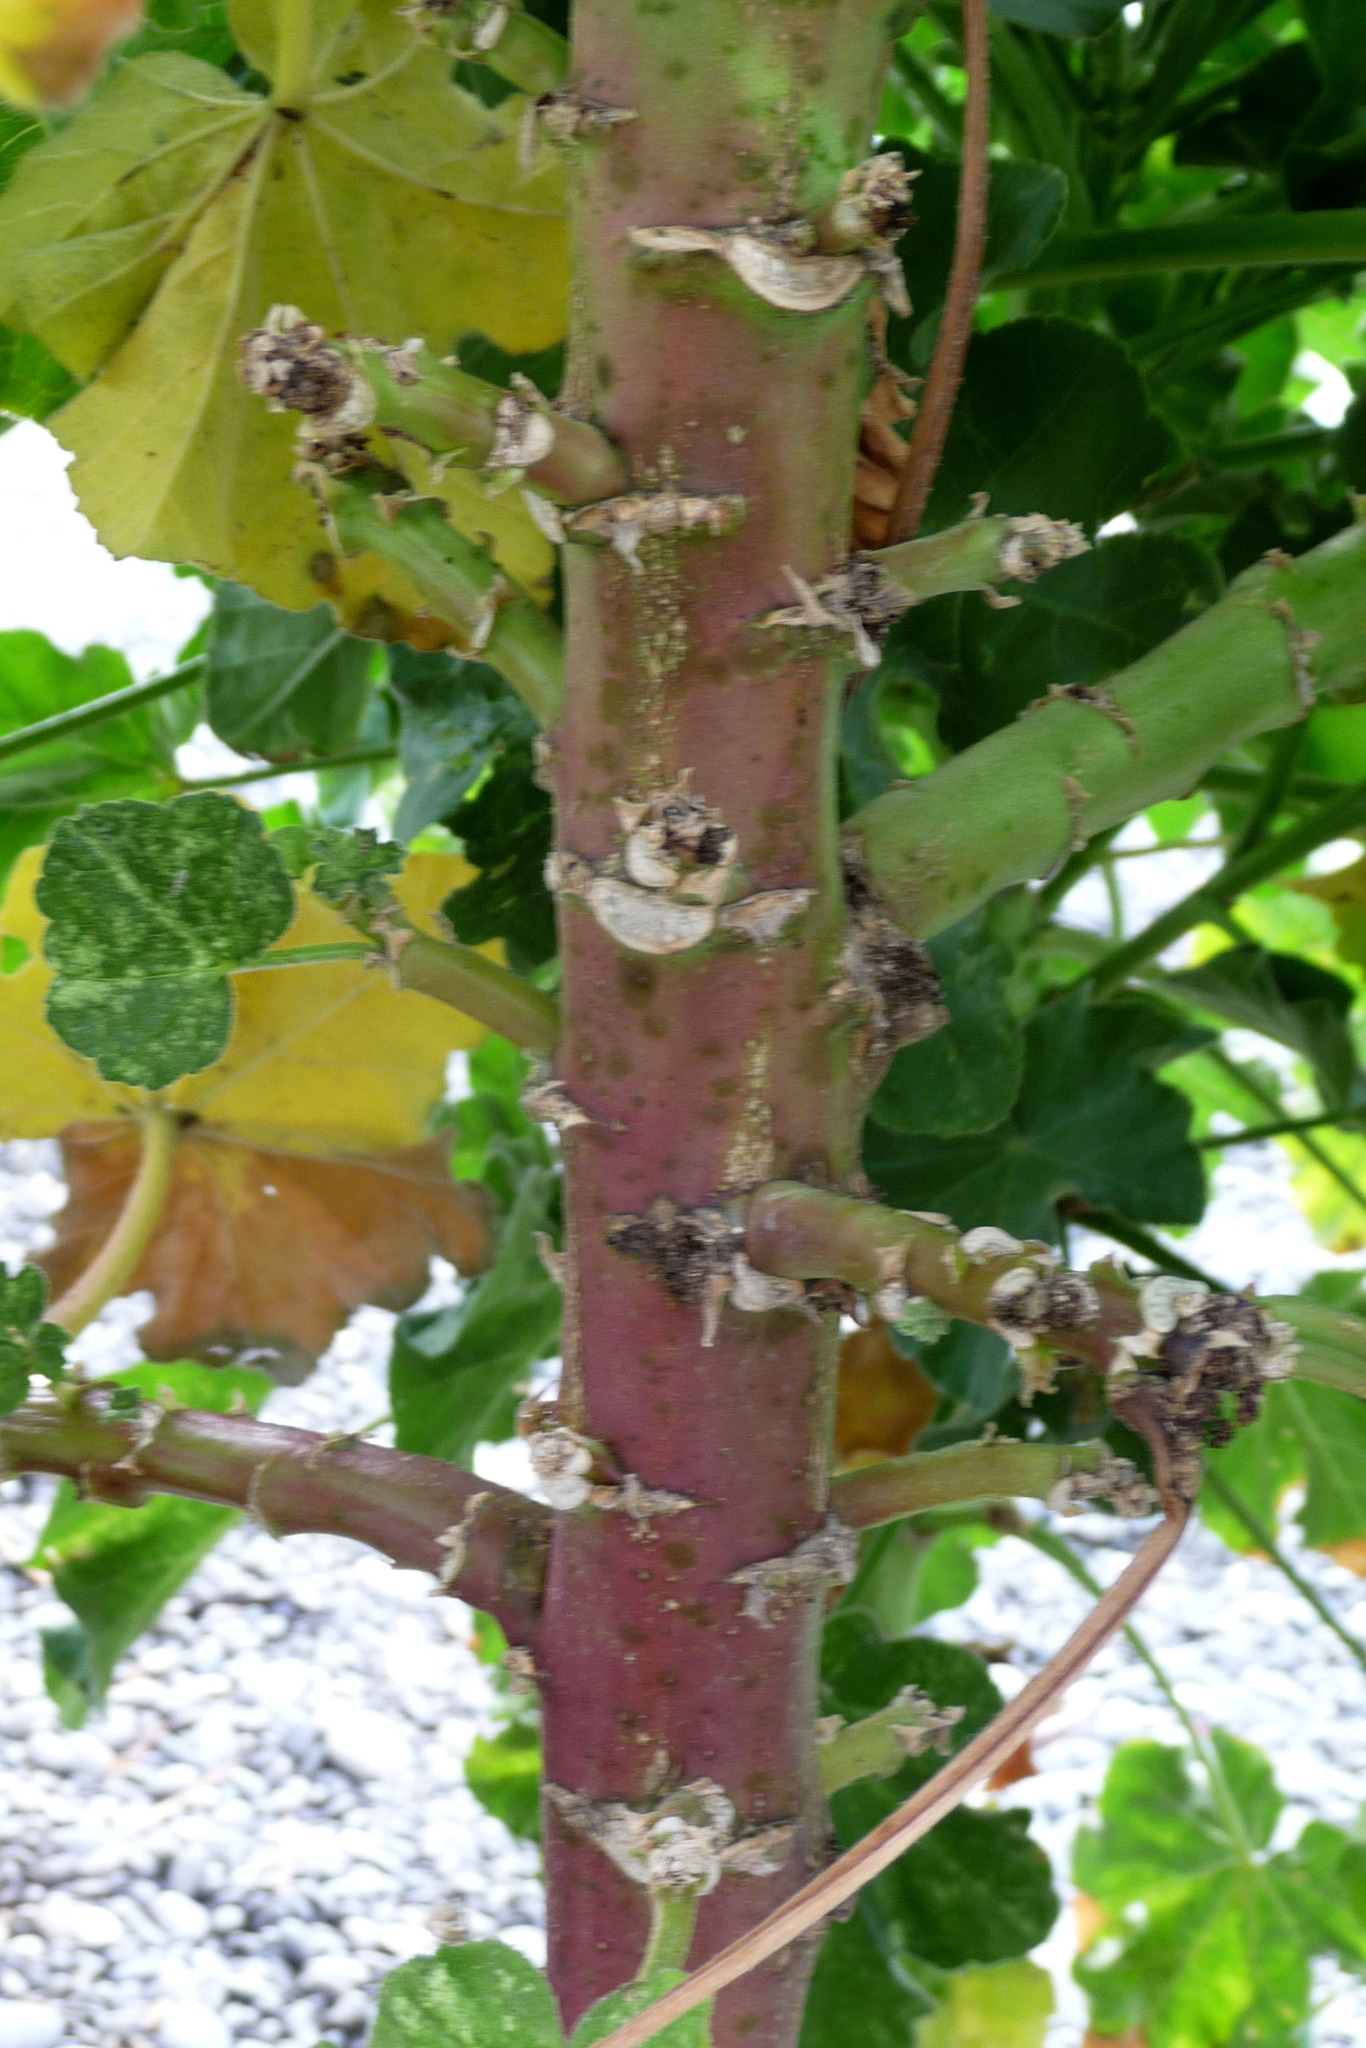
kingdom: Plantae
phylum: Tracheophyta
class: Magnoliopsida
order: Malvales
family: Malvaceae
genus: Malva
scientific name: Malva arborea
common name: Tree mallow
